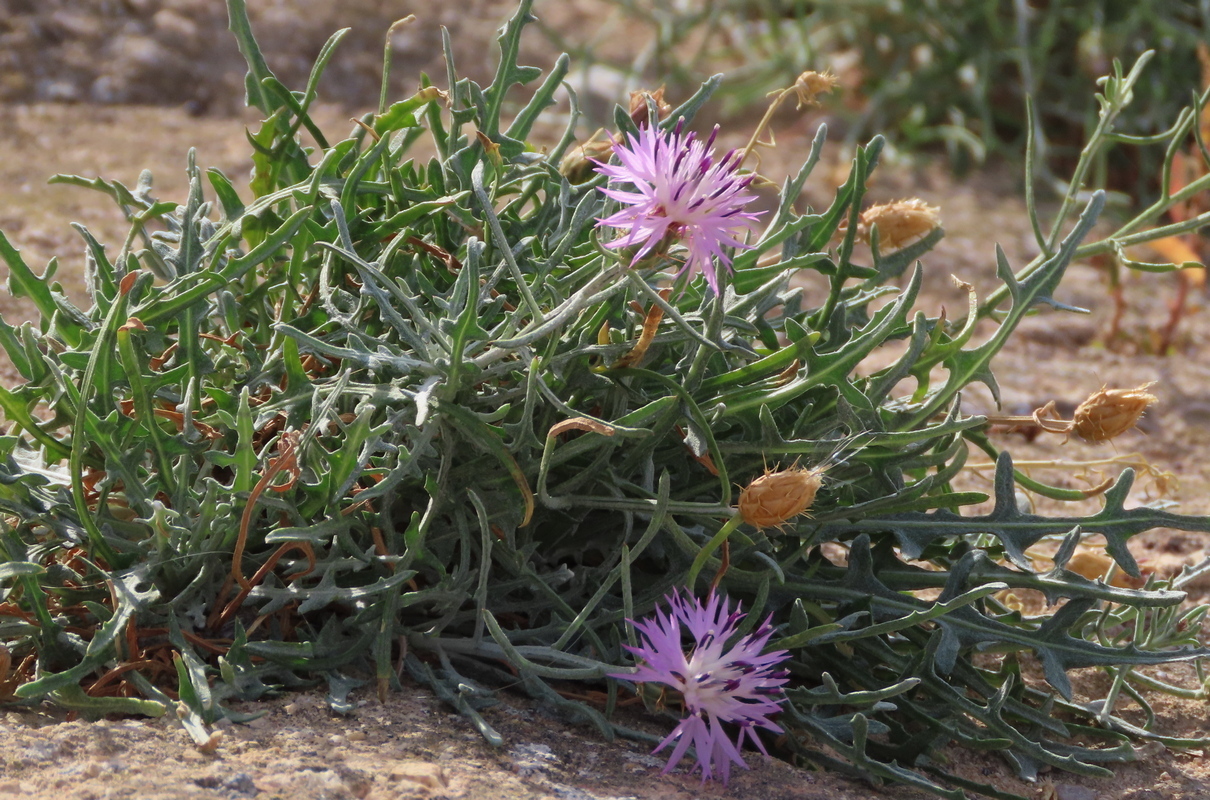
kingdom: Plantae
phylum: Tracheophyta
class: Magnoliopsida
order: Asterales
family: Asteraceae
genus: Centaurea
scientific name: Centaurea aspera
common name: Rough star-thistle
